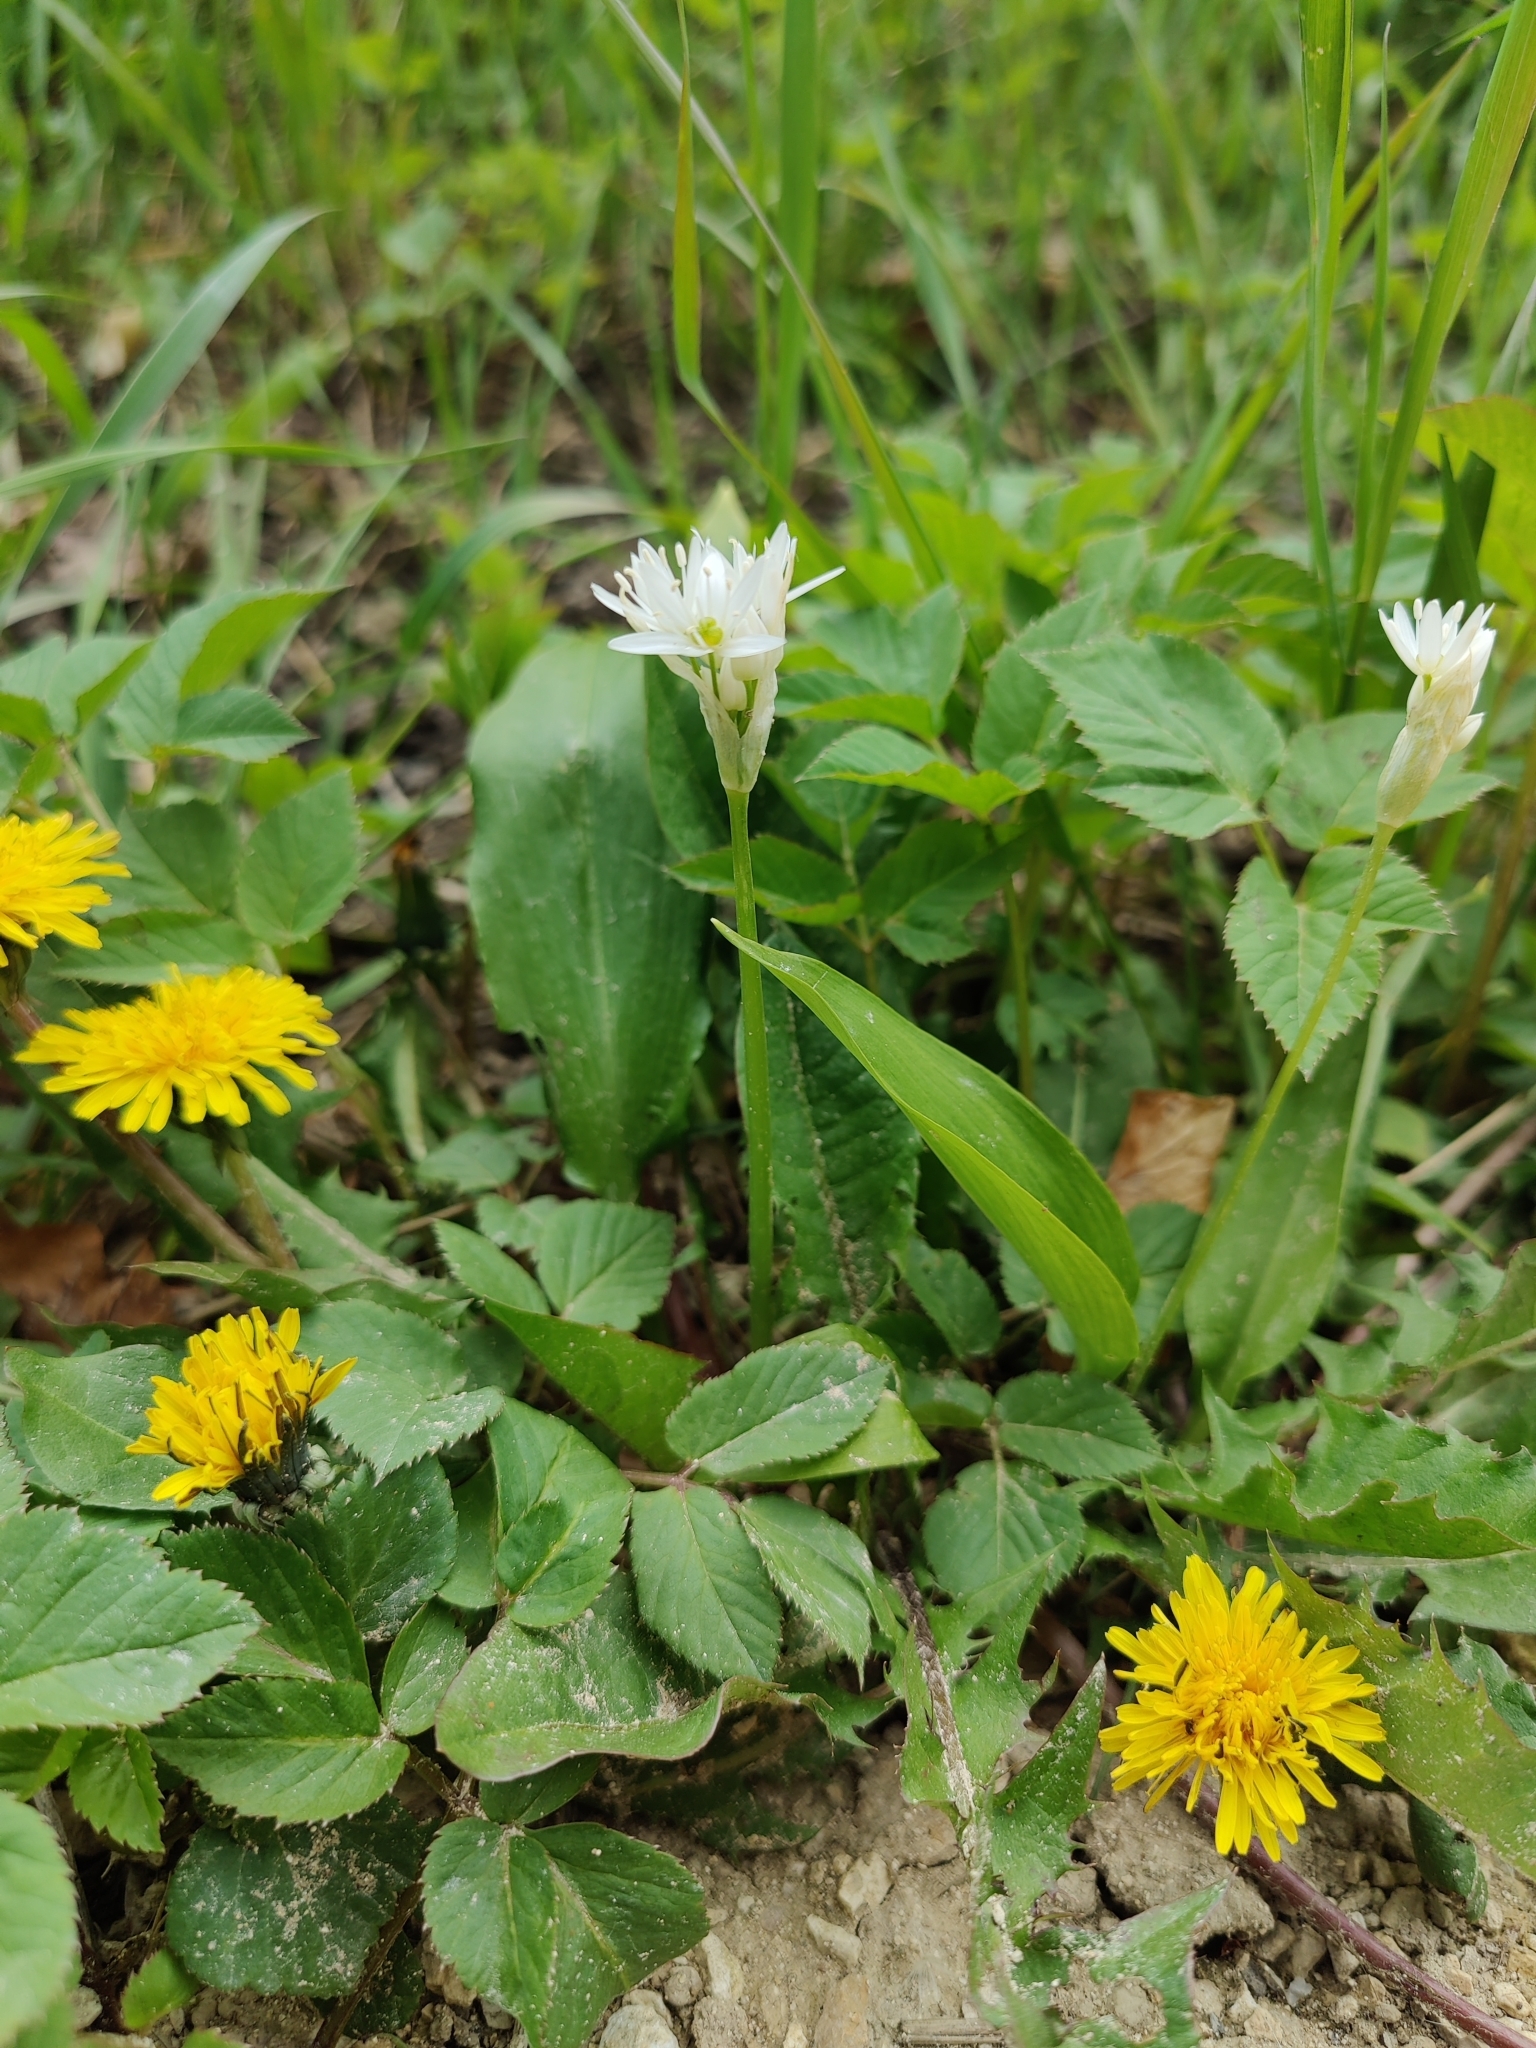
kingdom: Plantae
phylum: Tracheophyta
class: Liliopsida
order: Asparagales
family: Amaryllidaceae
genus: Allium
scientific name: Allium ursinum
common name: Ramsons
